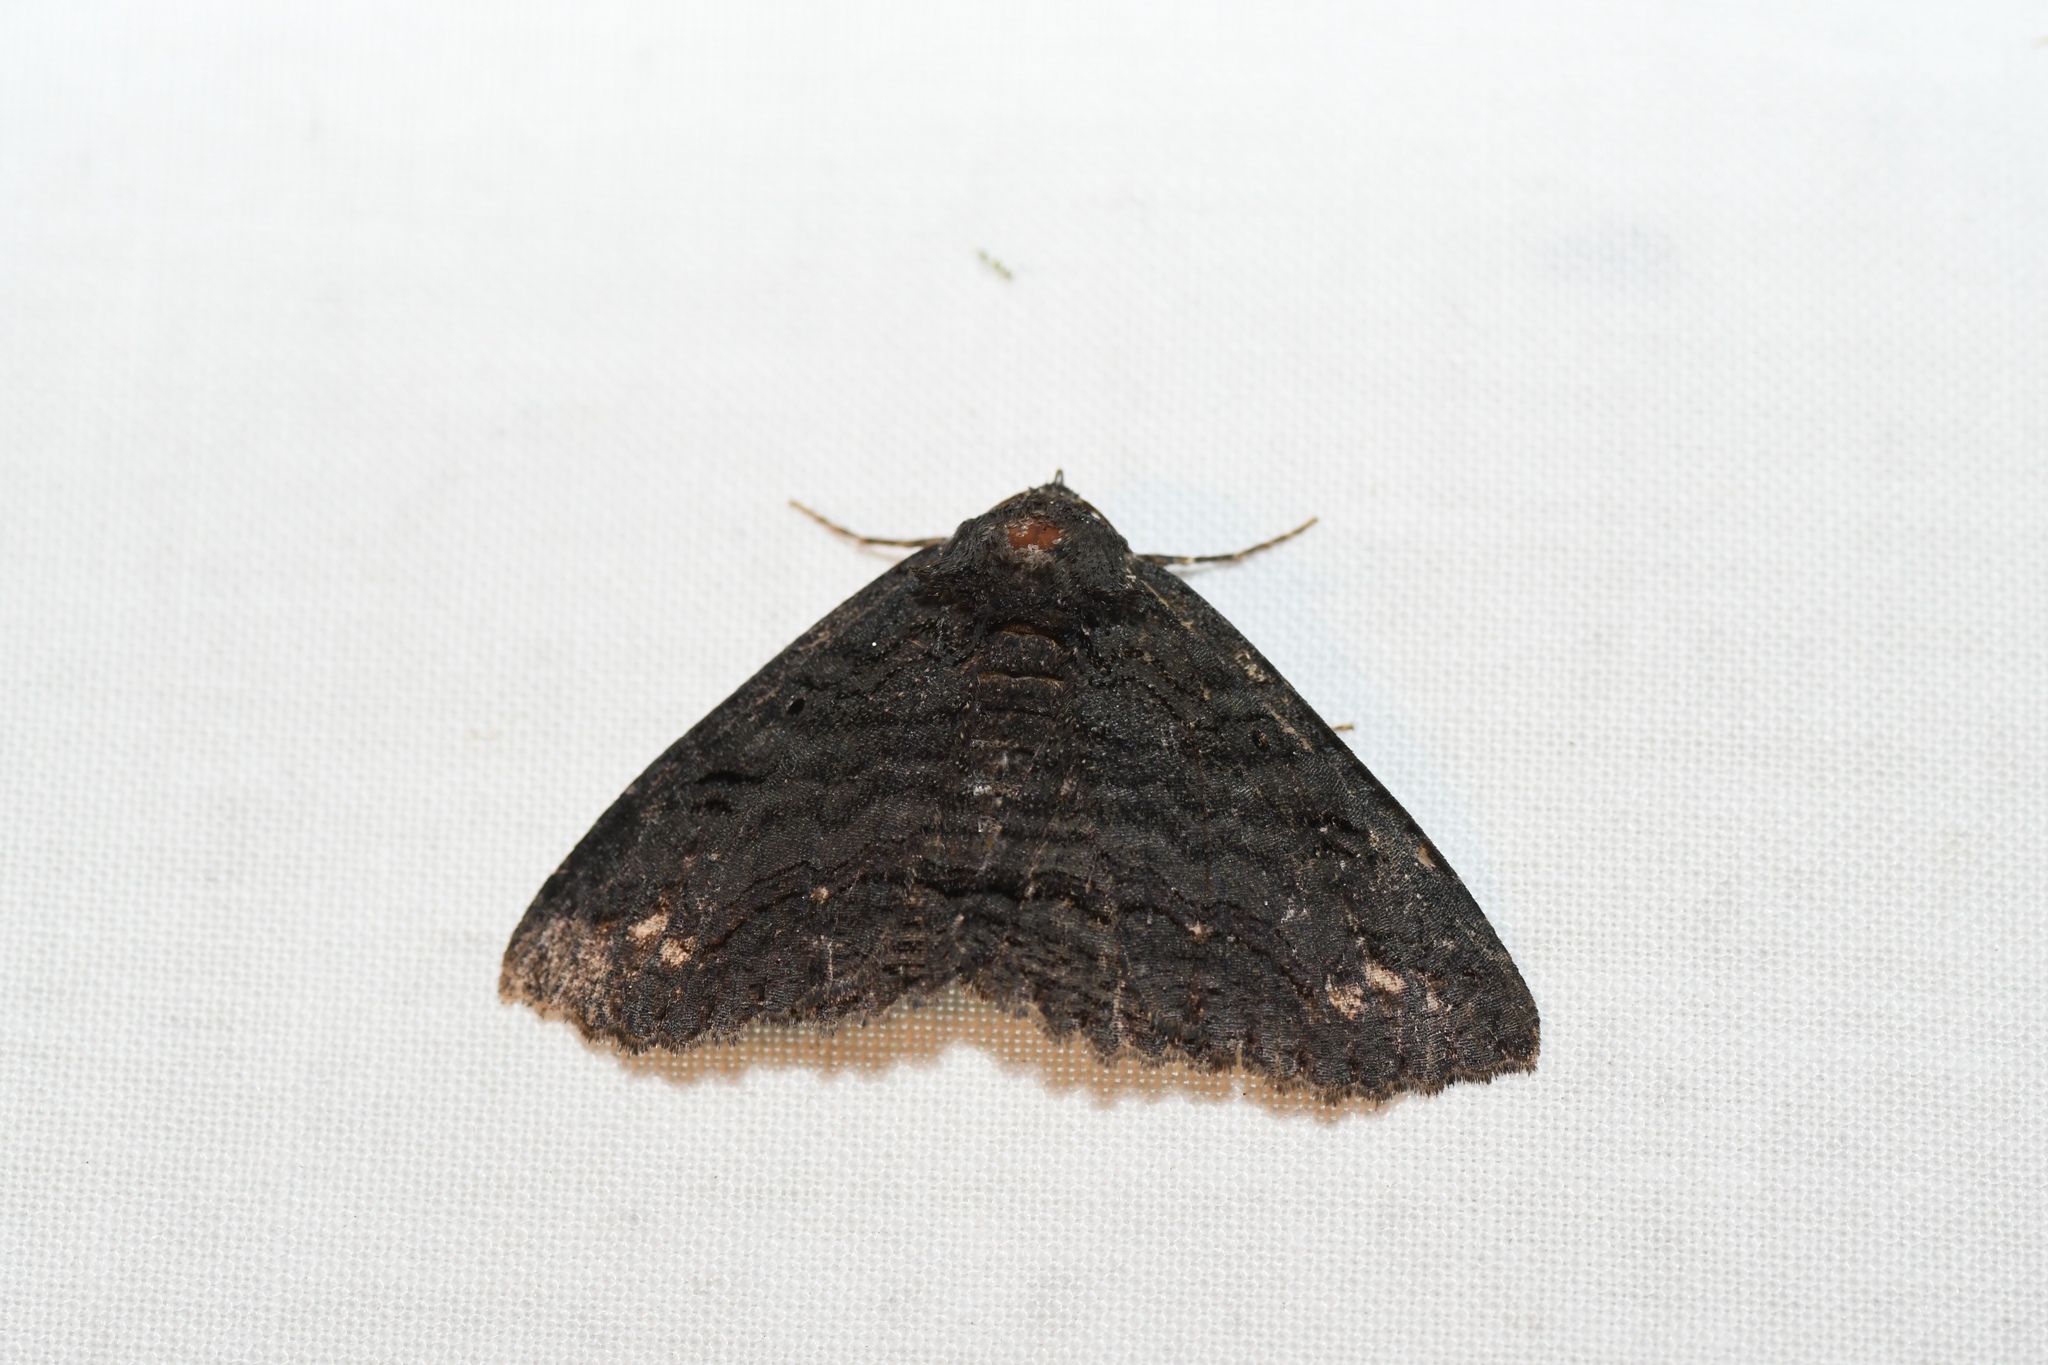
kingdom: Animalia
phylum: Arthropoda
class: Insecta
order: Lepidoptera
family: Erebidae
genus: Zale
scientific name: Zale undularis
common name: Black zale moth
